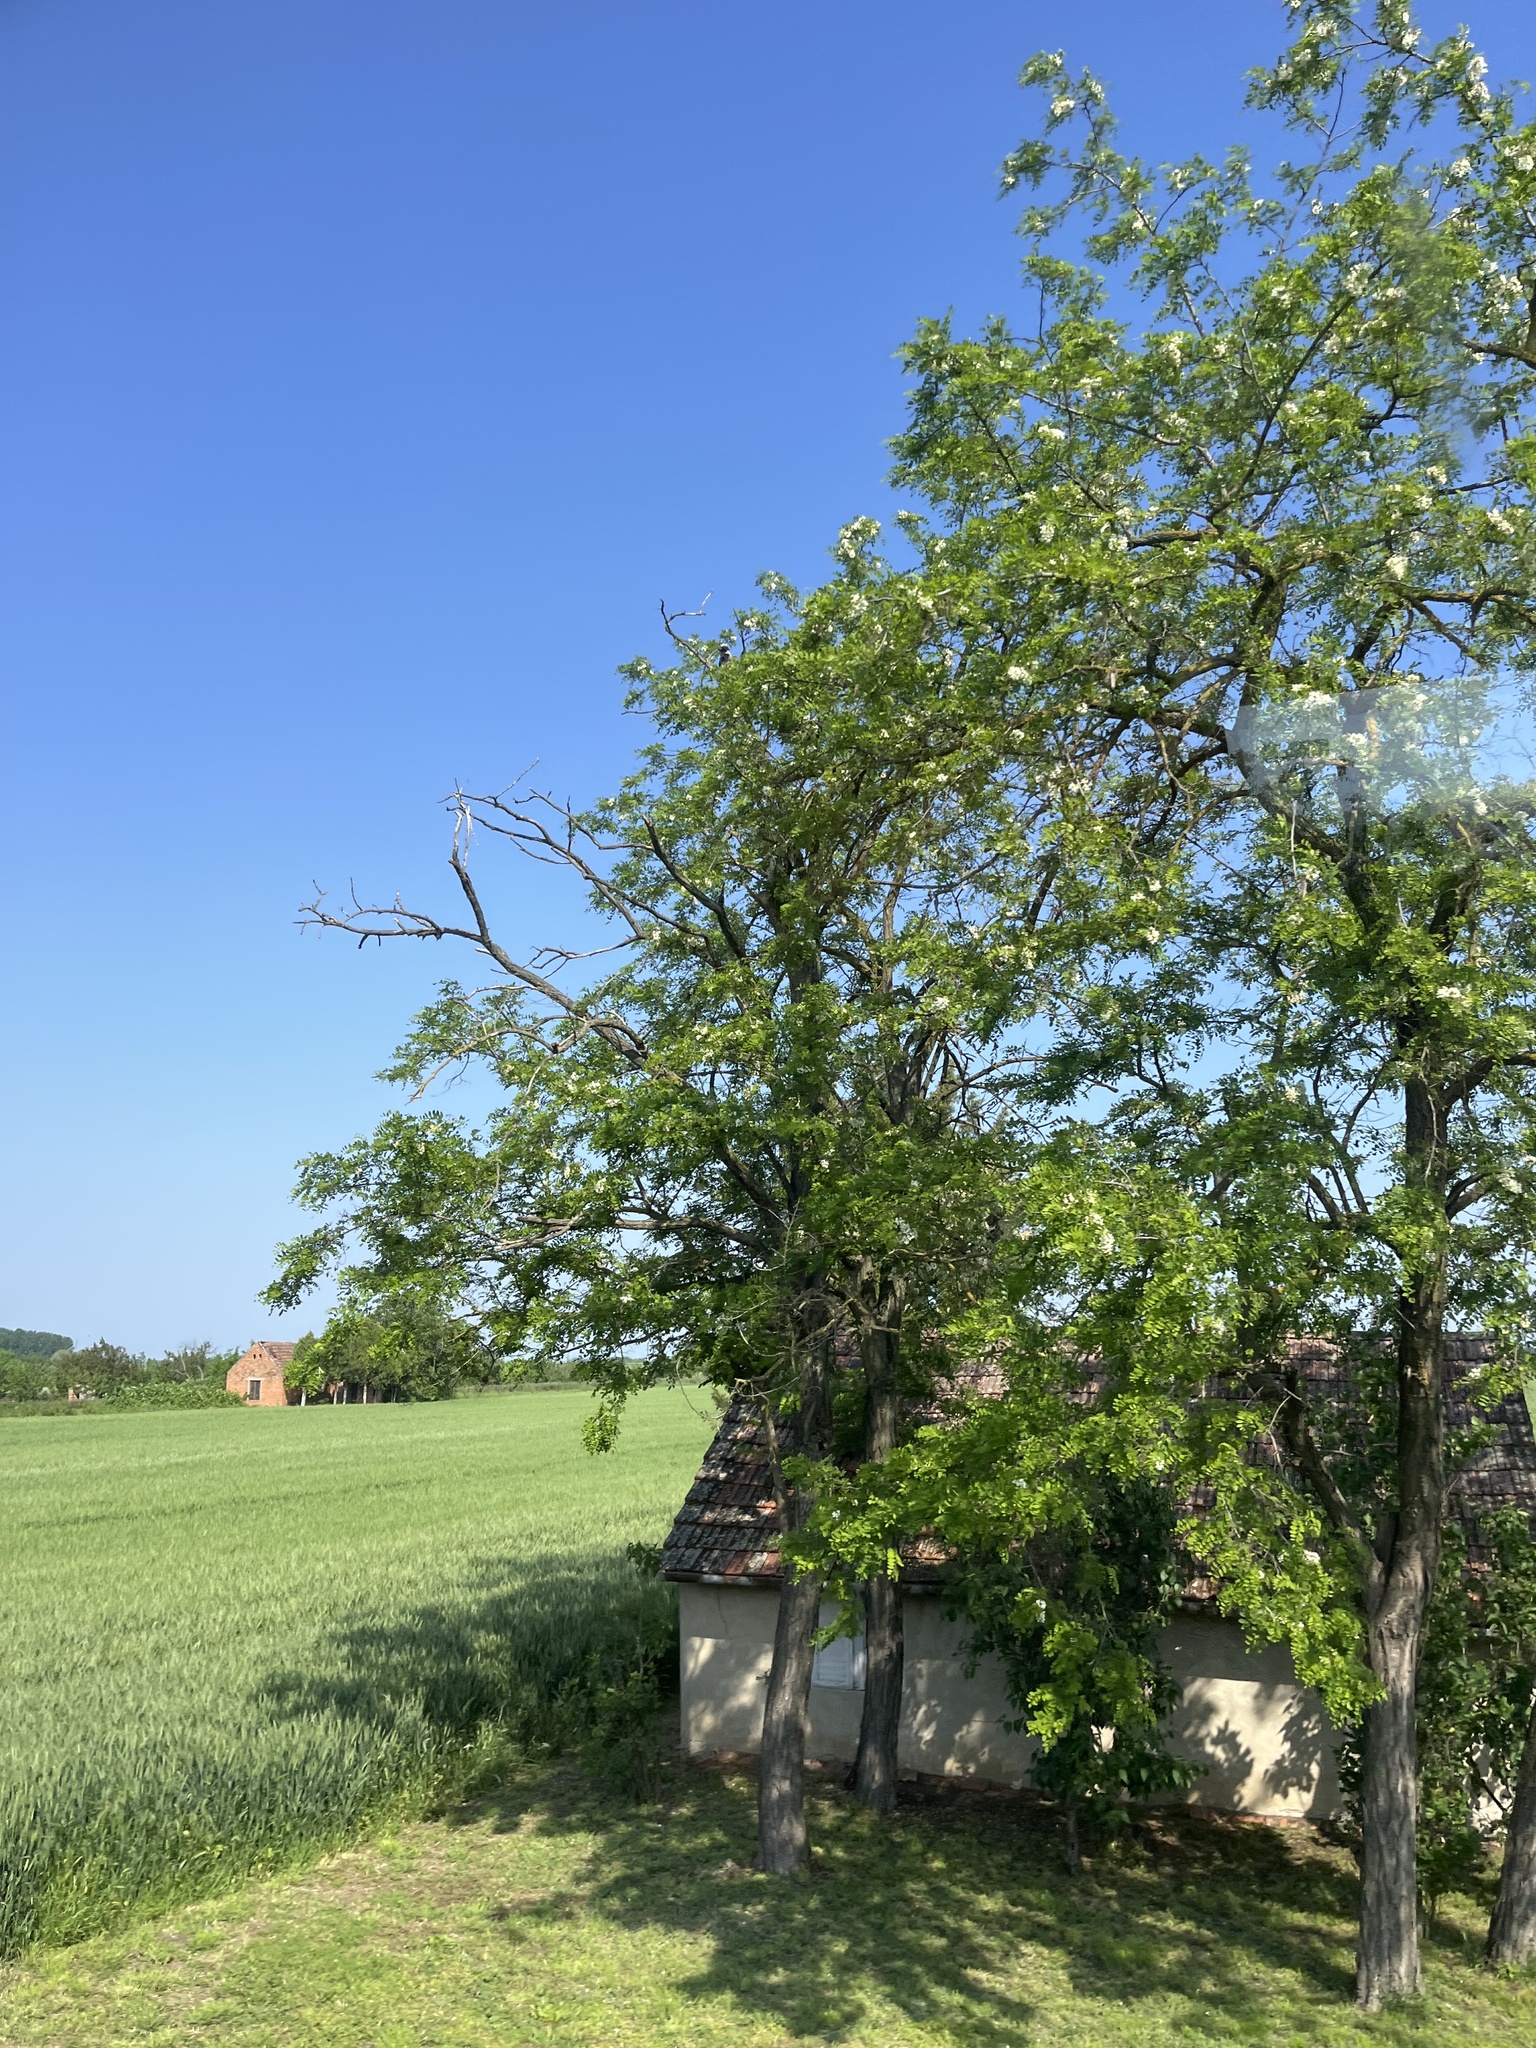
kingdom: Plantae
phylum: Tracheophyta
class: Magnoliopsida
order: Fabales
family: Fabaceae
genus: Robinia
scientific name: Robinia pseudoacacia
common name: Black locust
